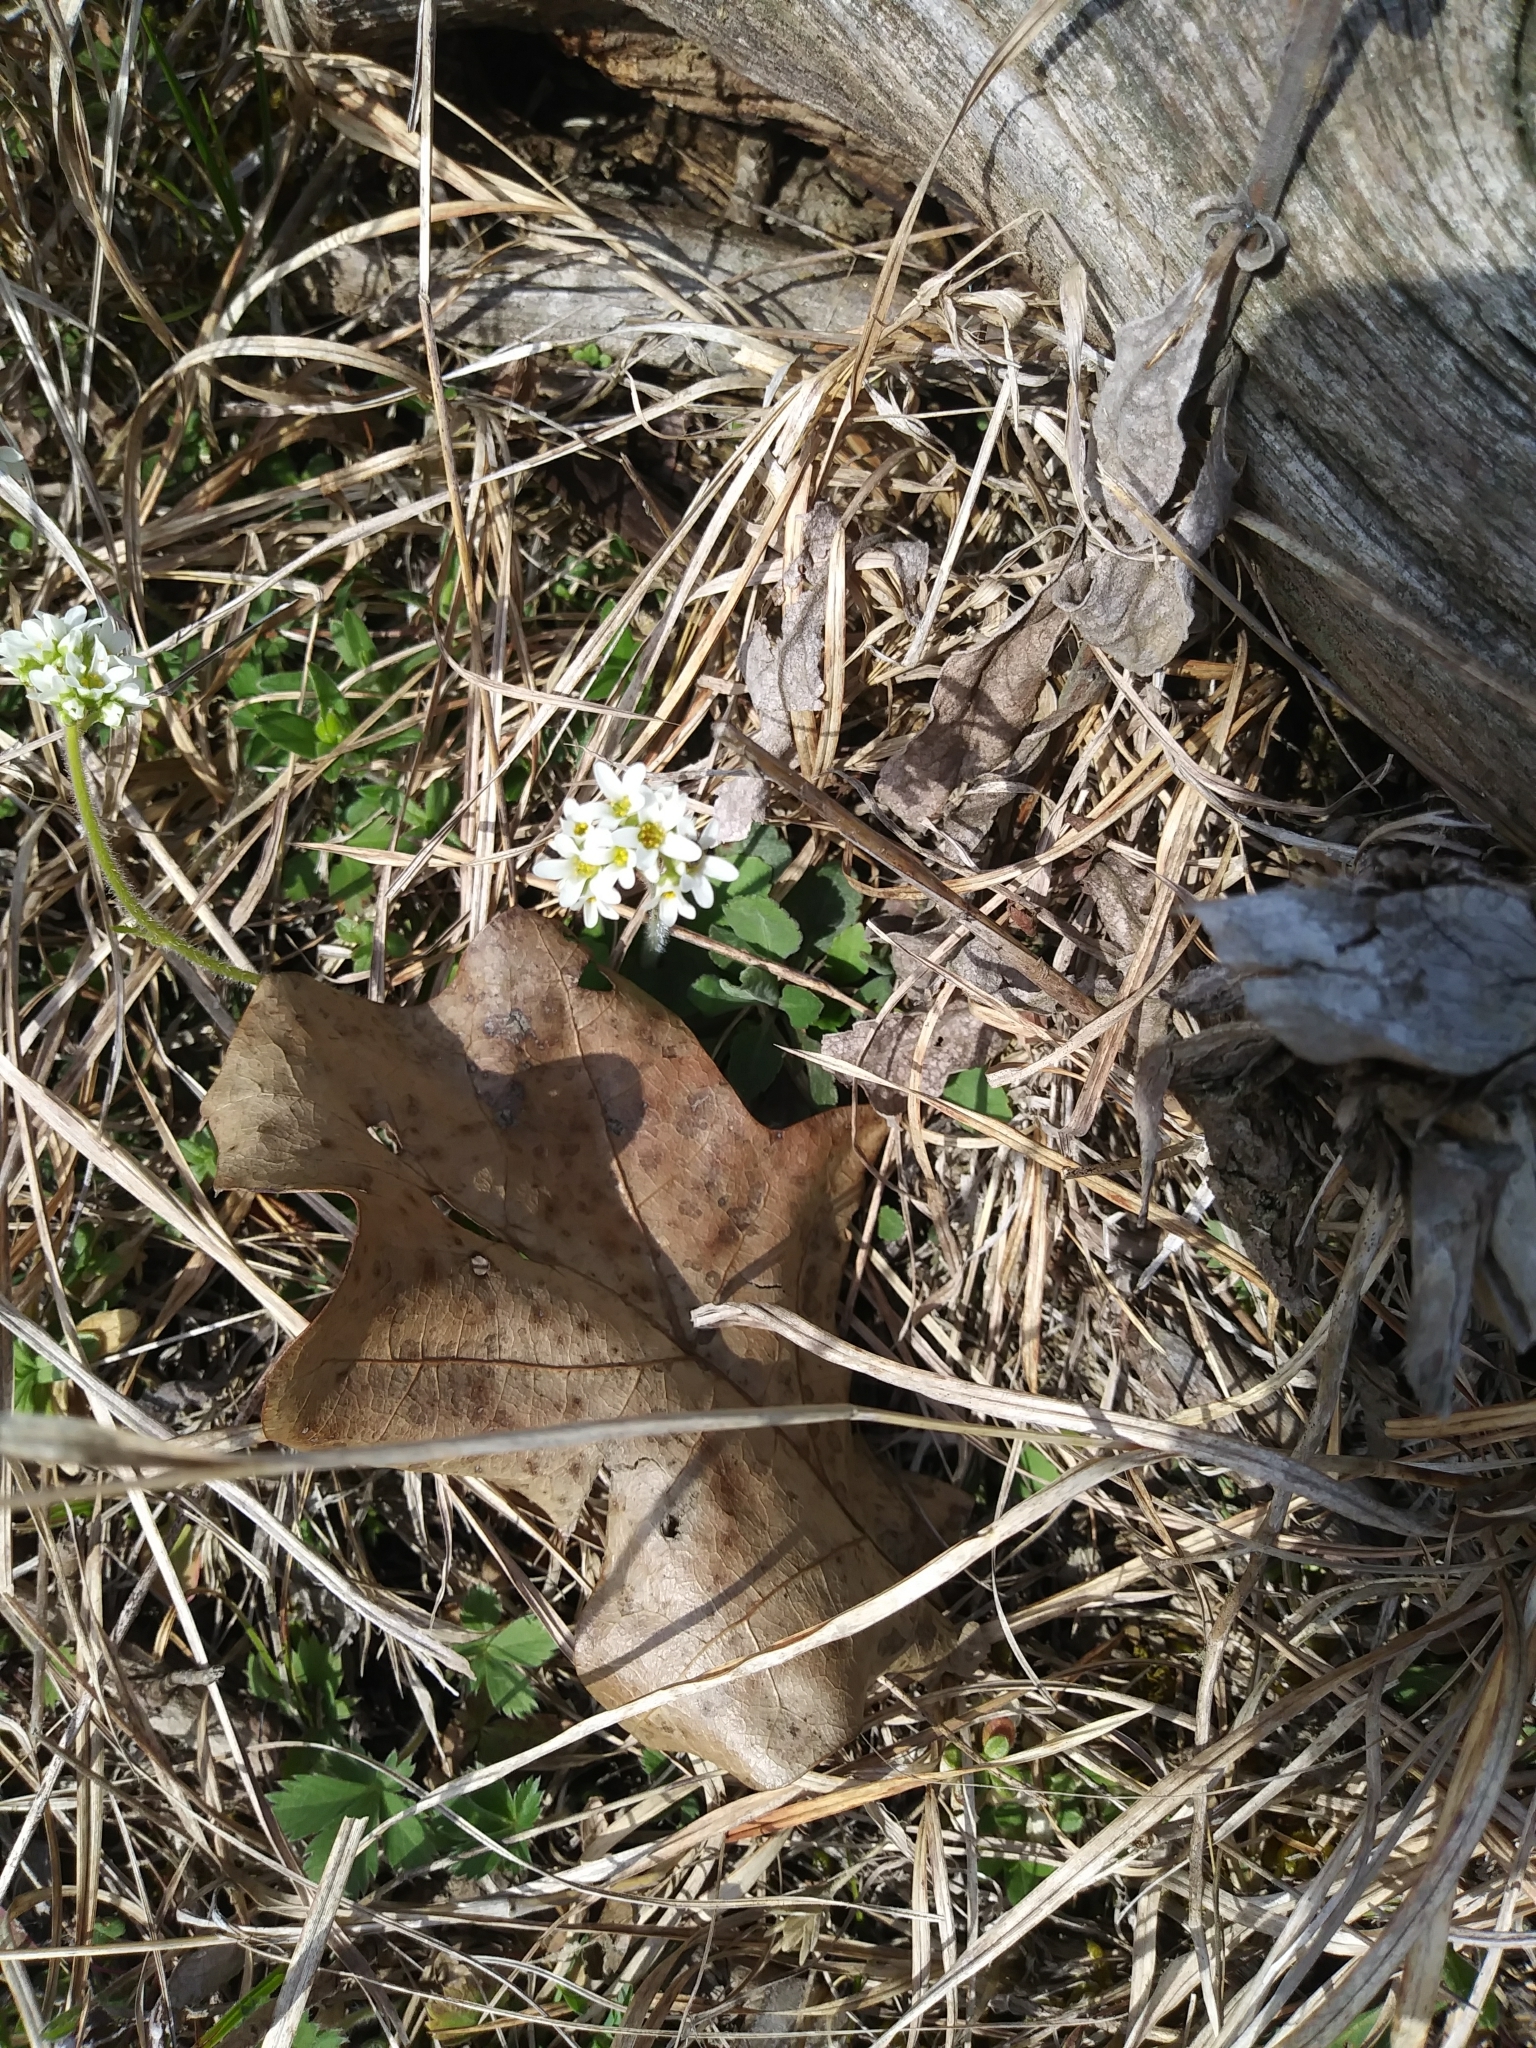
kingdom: Plantae
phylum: Tracheophyta
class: Magnoliopsida
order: Saxifragales
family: Saxifragaceae
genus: Micranthes
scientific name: Micranthes virginiensis
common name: Early saxifrage
